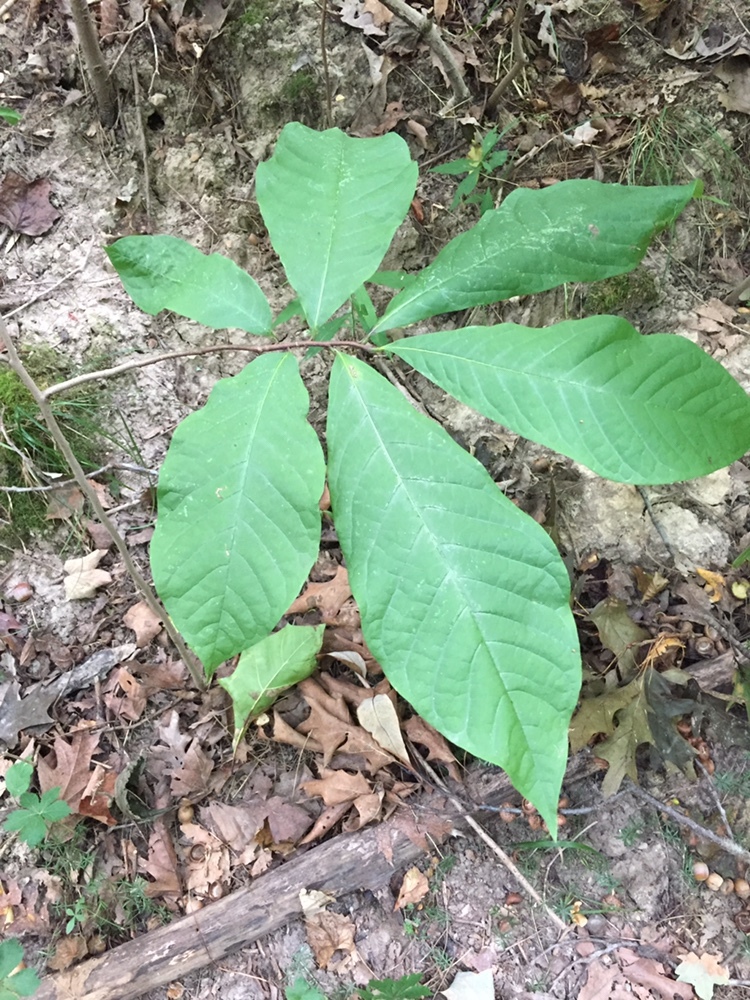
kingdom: Plantae
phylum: Tracheophyta
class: Magnoliopsida
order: Magnoliales
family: Annonaceae
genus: Asimina
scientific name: Asimina triloba
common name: Dog-banana
